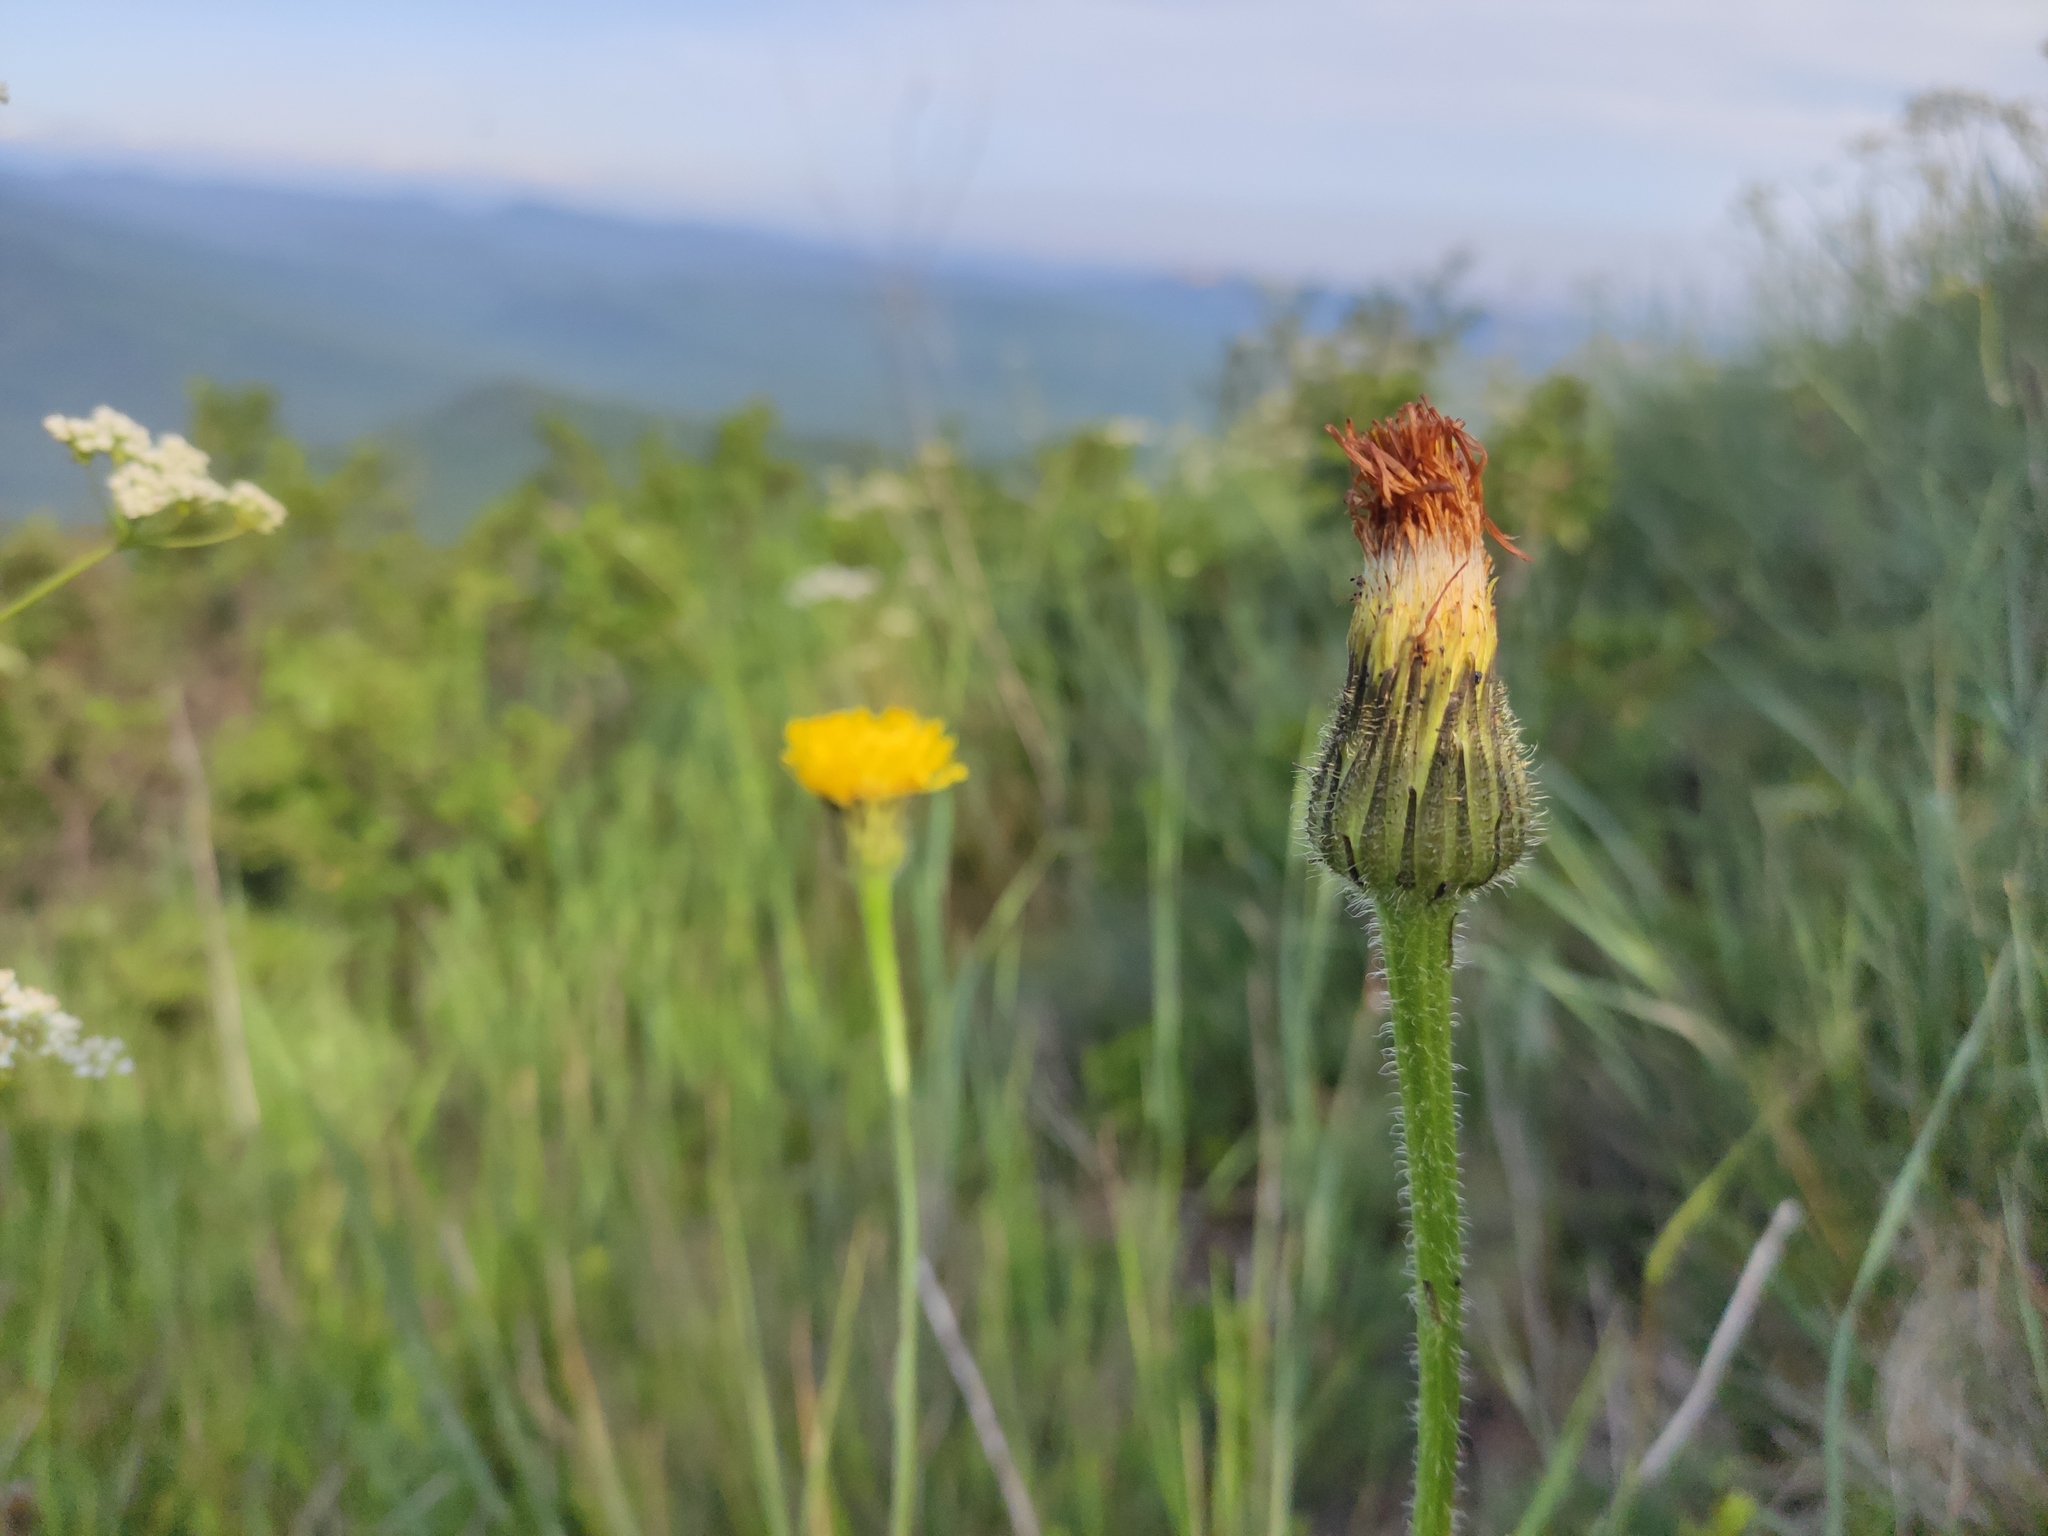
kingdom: Plantae
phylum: Tracheophyta
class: Magnoliopsida
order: Asterales
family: Asteraceae
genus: Trommsdorffia
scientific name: Trommsdorffia maculata
